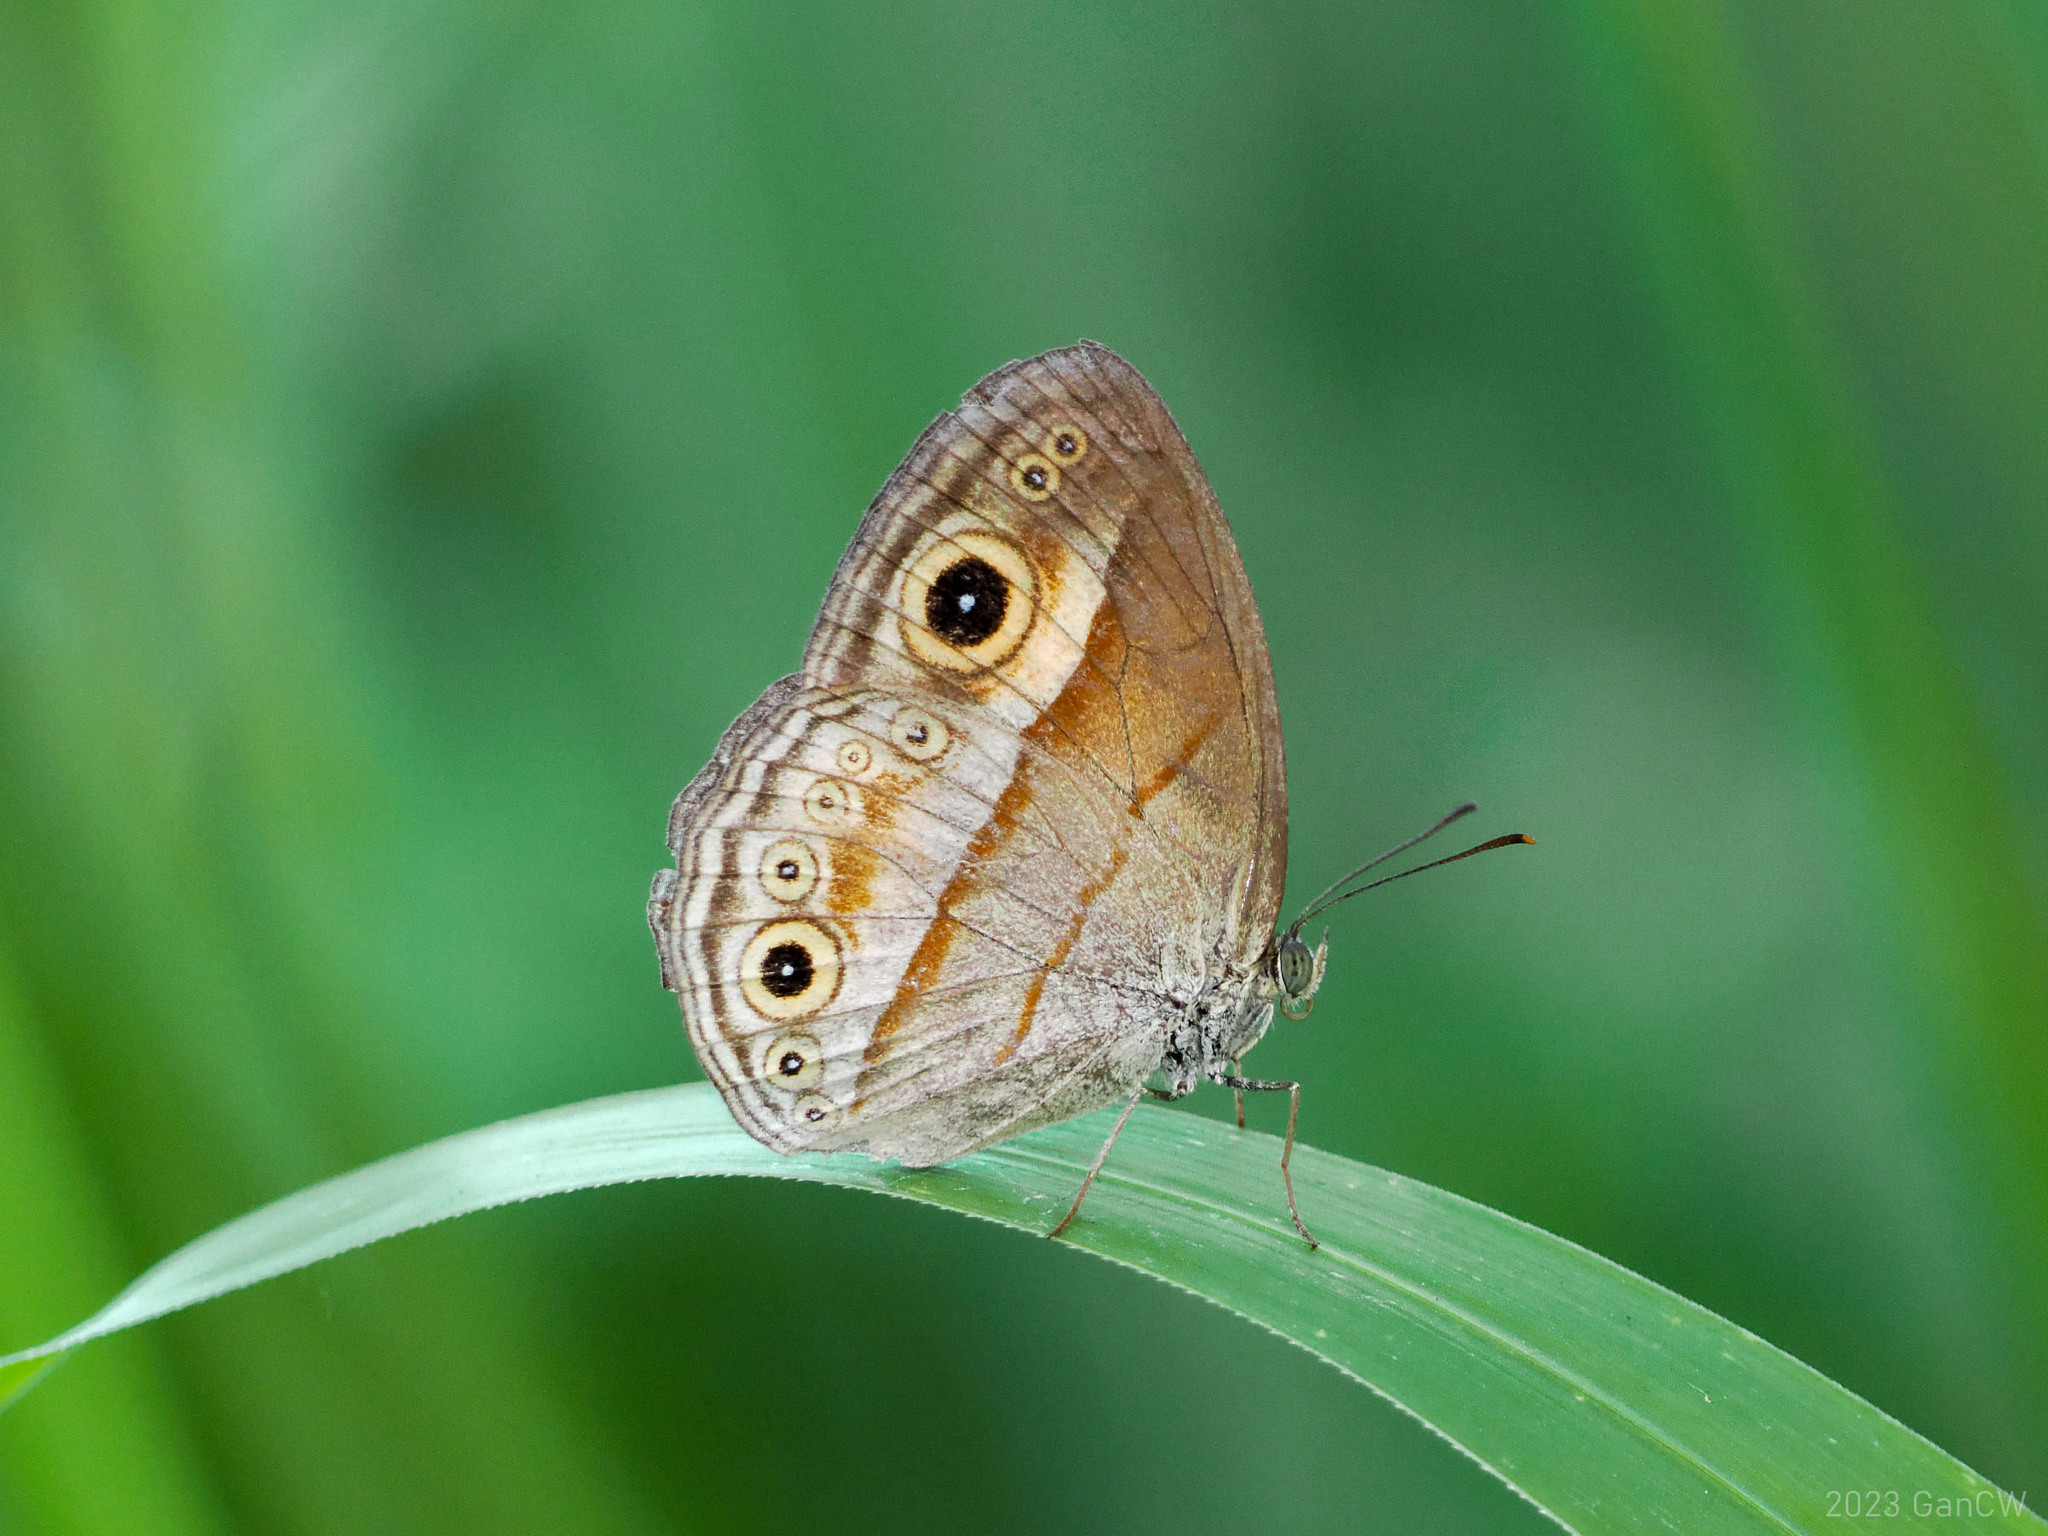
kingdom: Animalia
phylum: Arthropoda
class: Insecta
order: Lepidoptera
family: Nymphalidae
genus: Mycalesis
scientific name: Mycalesis ita
